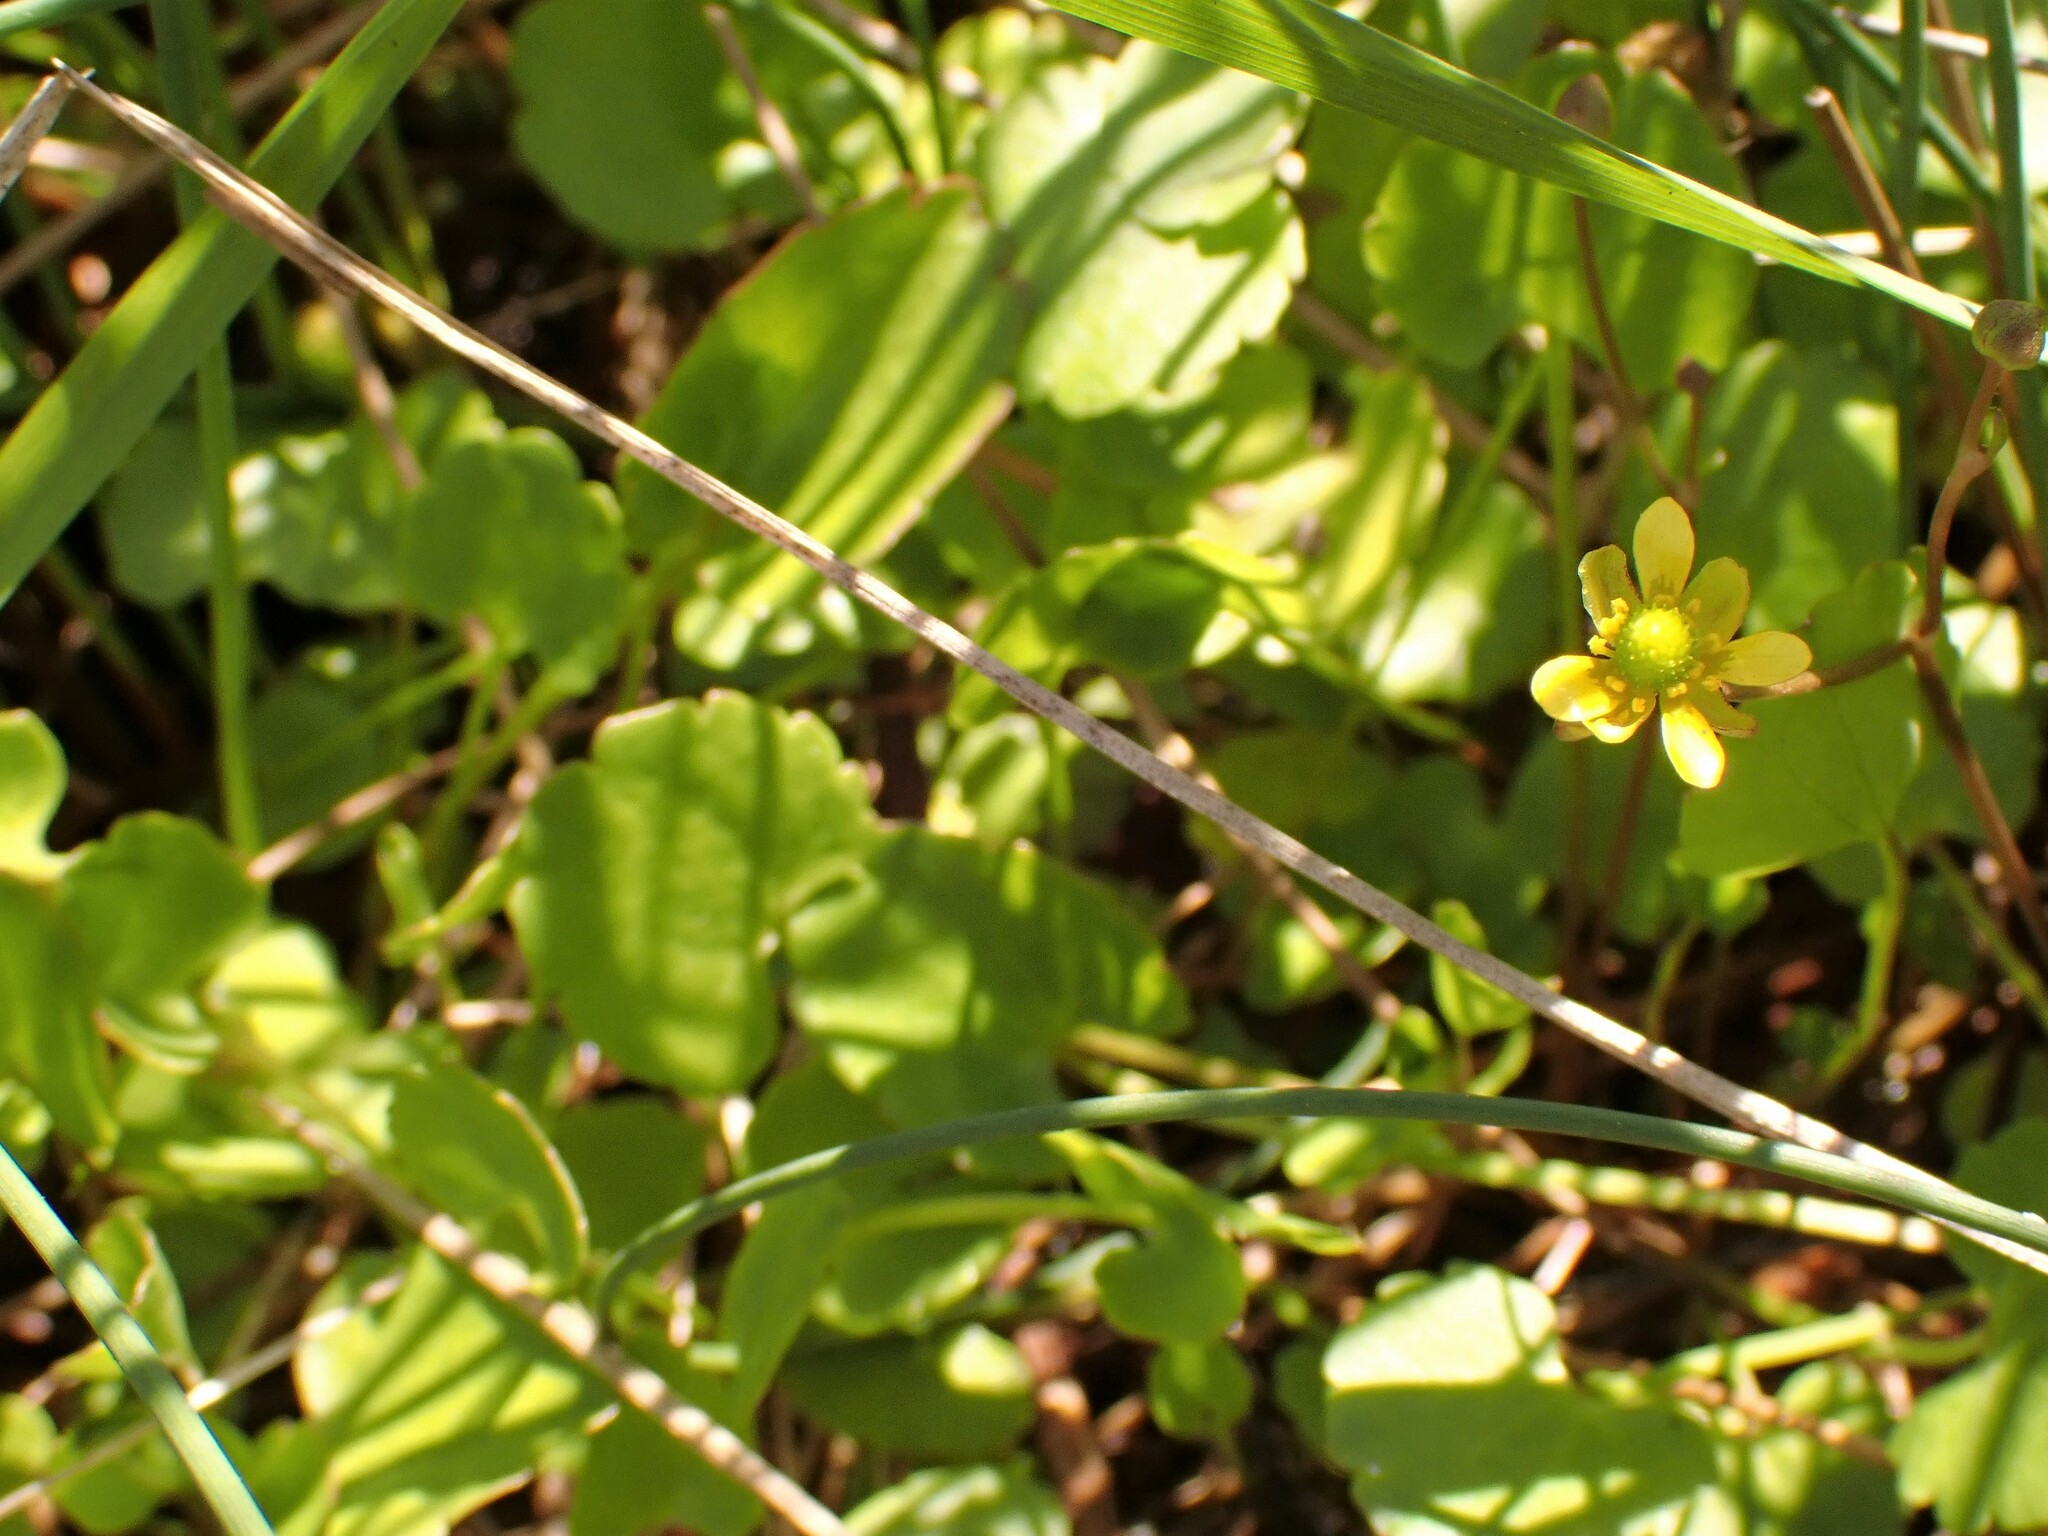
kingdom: Plantae
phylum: Tracheophyta
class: Magnoliopsida
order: Ranunculales
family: Ranunculaceae
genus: Halerpestes
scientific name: Halerpestes cymbalaria
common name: Seaside crowfoot
